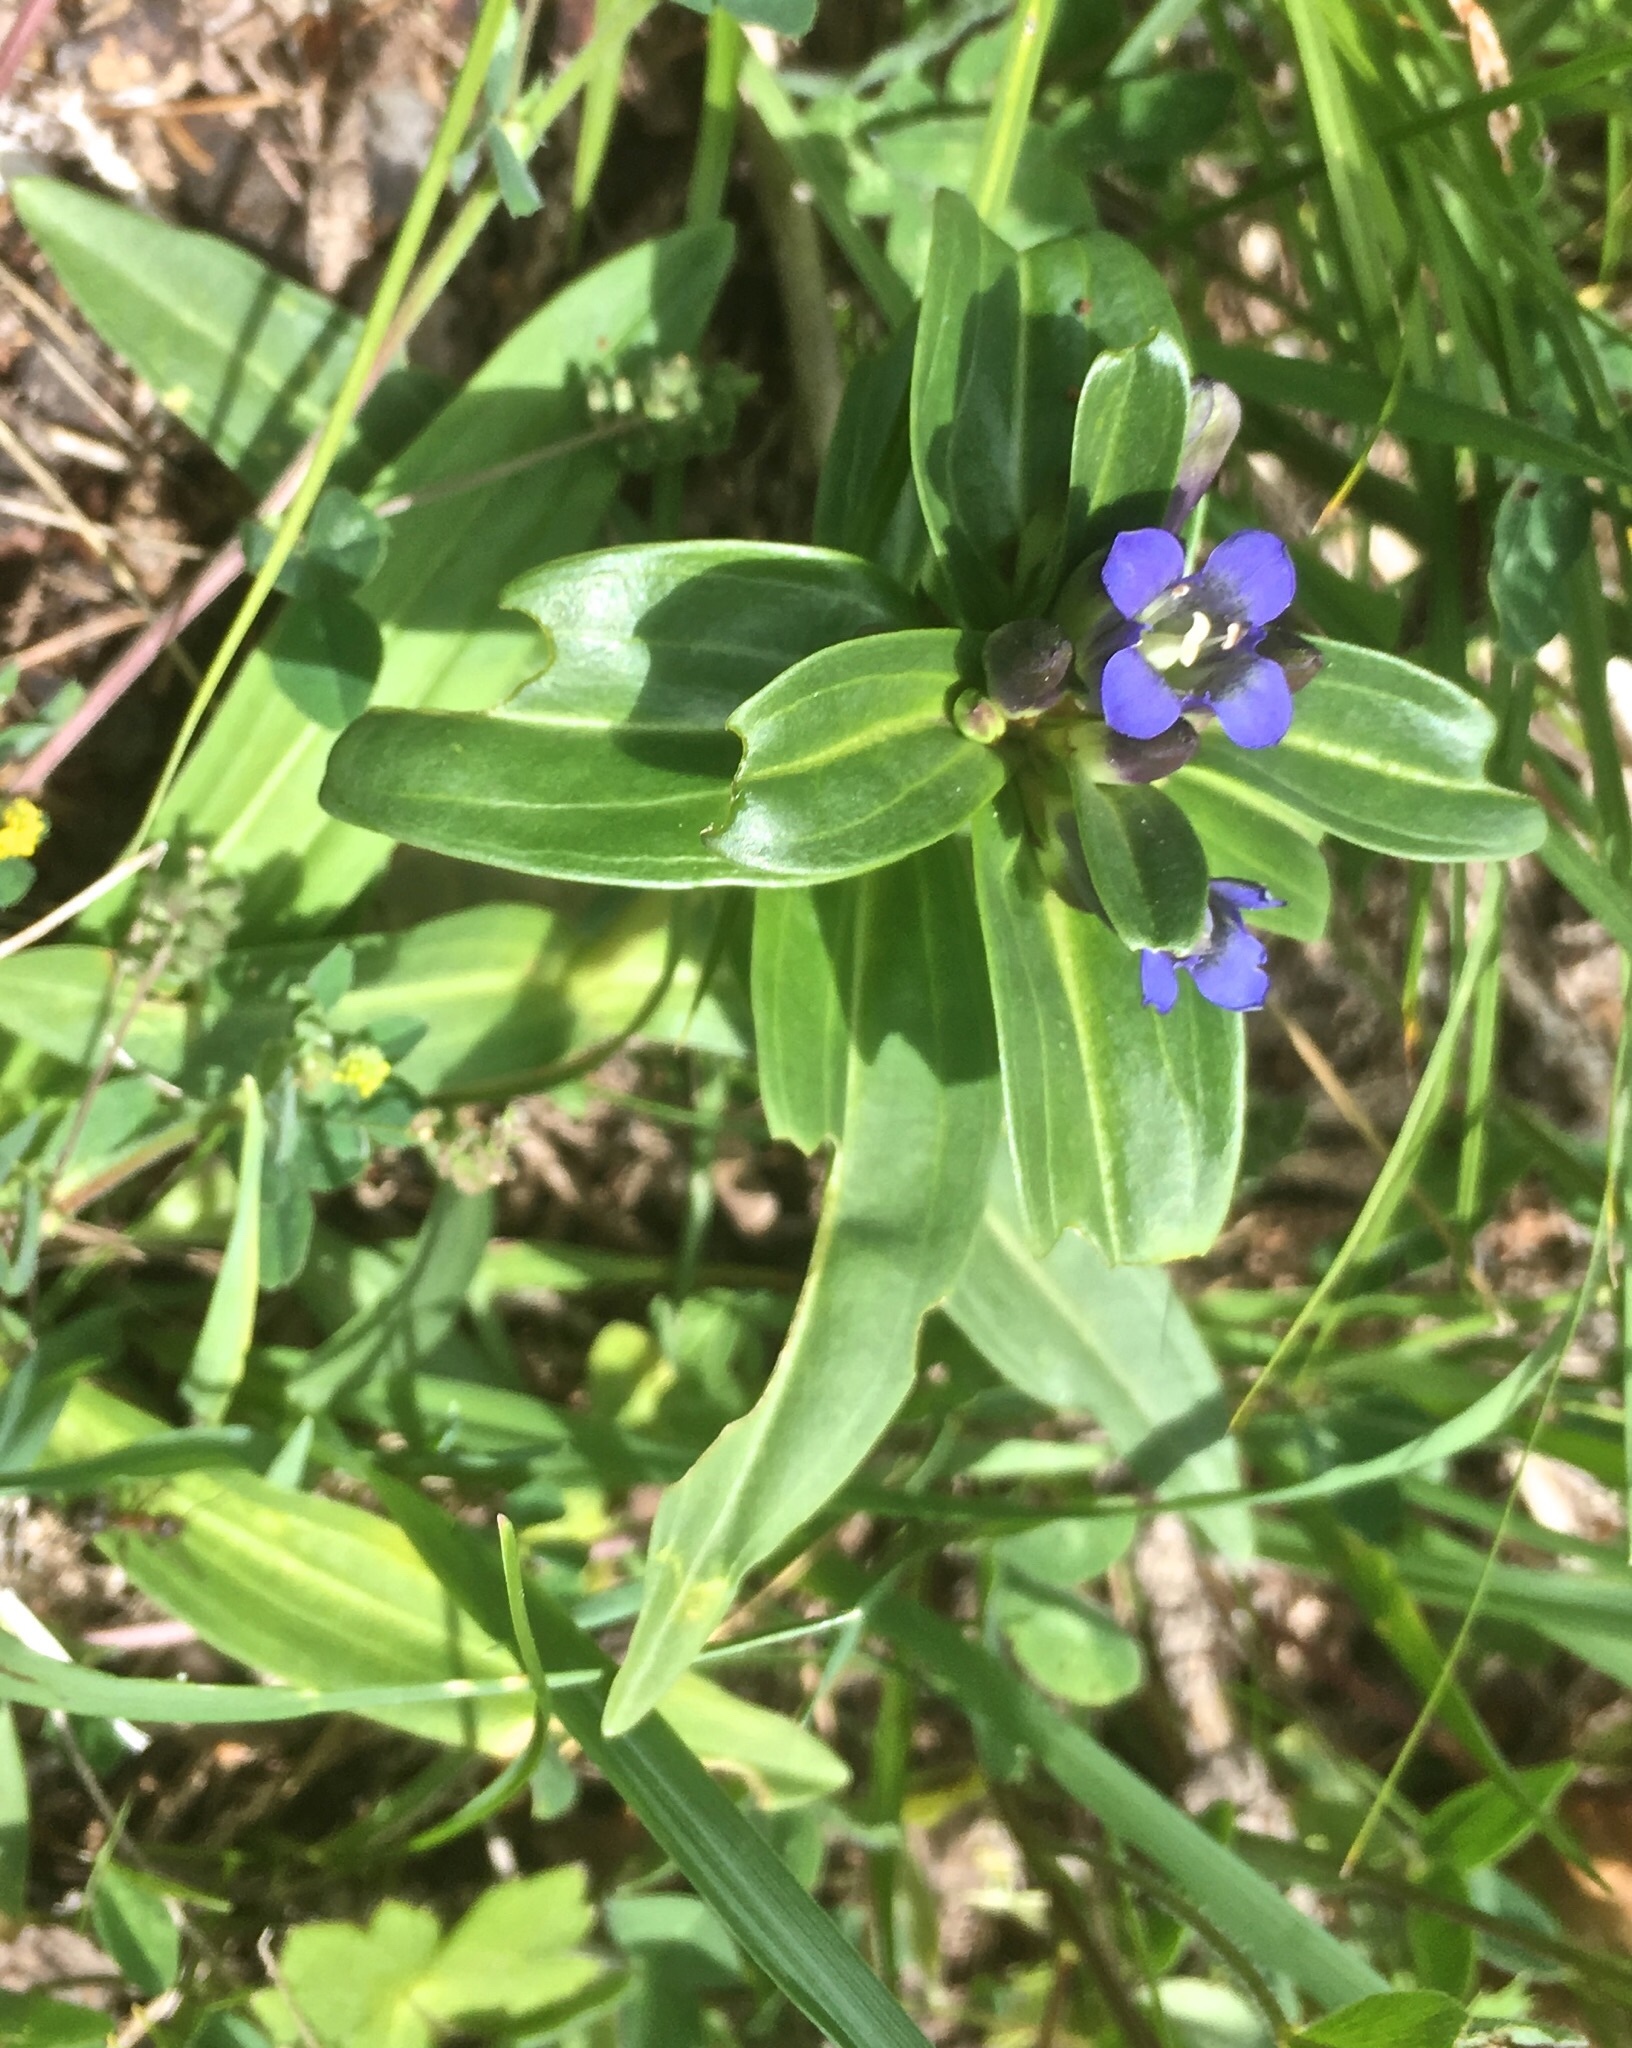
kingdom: Plantae
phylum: Tracheophyta
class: Magnoliopsida
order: Gentianales
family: Gentianaceae
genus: Gentiana
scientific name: Gentiana cruciata
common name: Cross gentian
